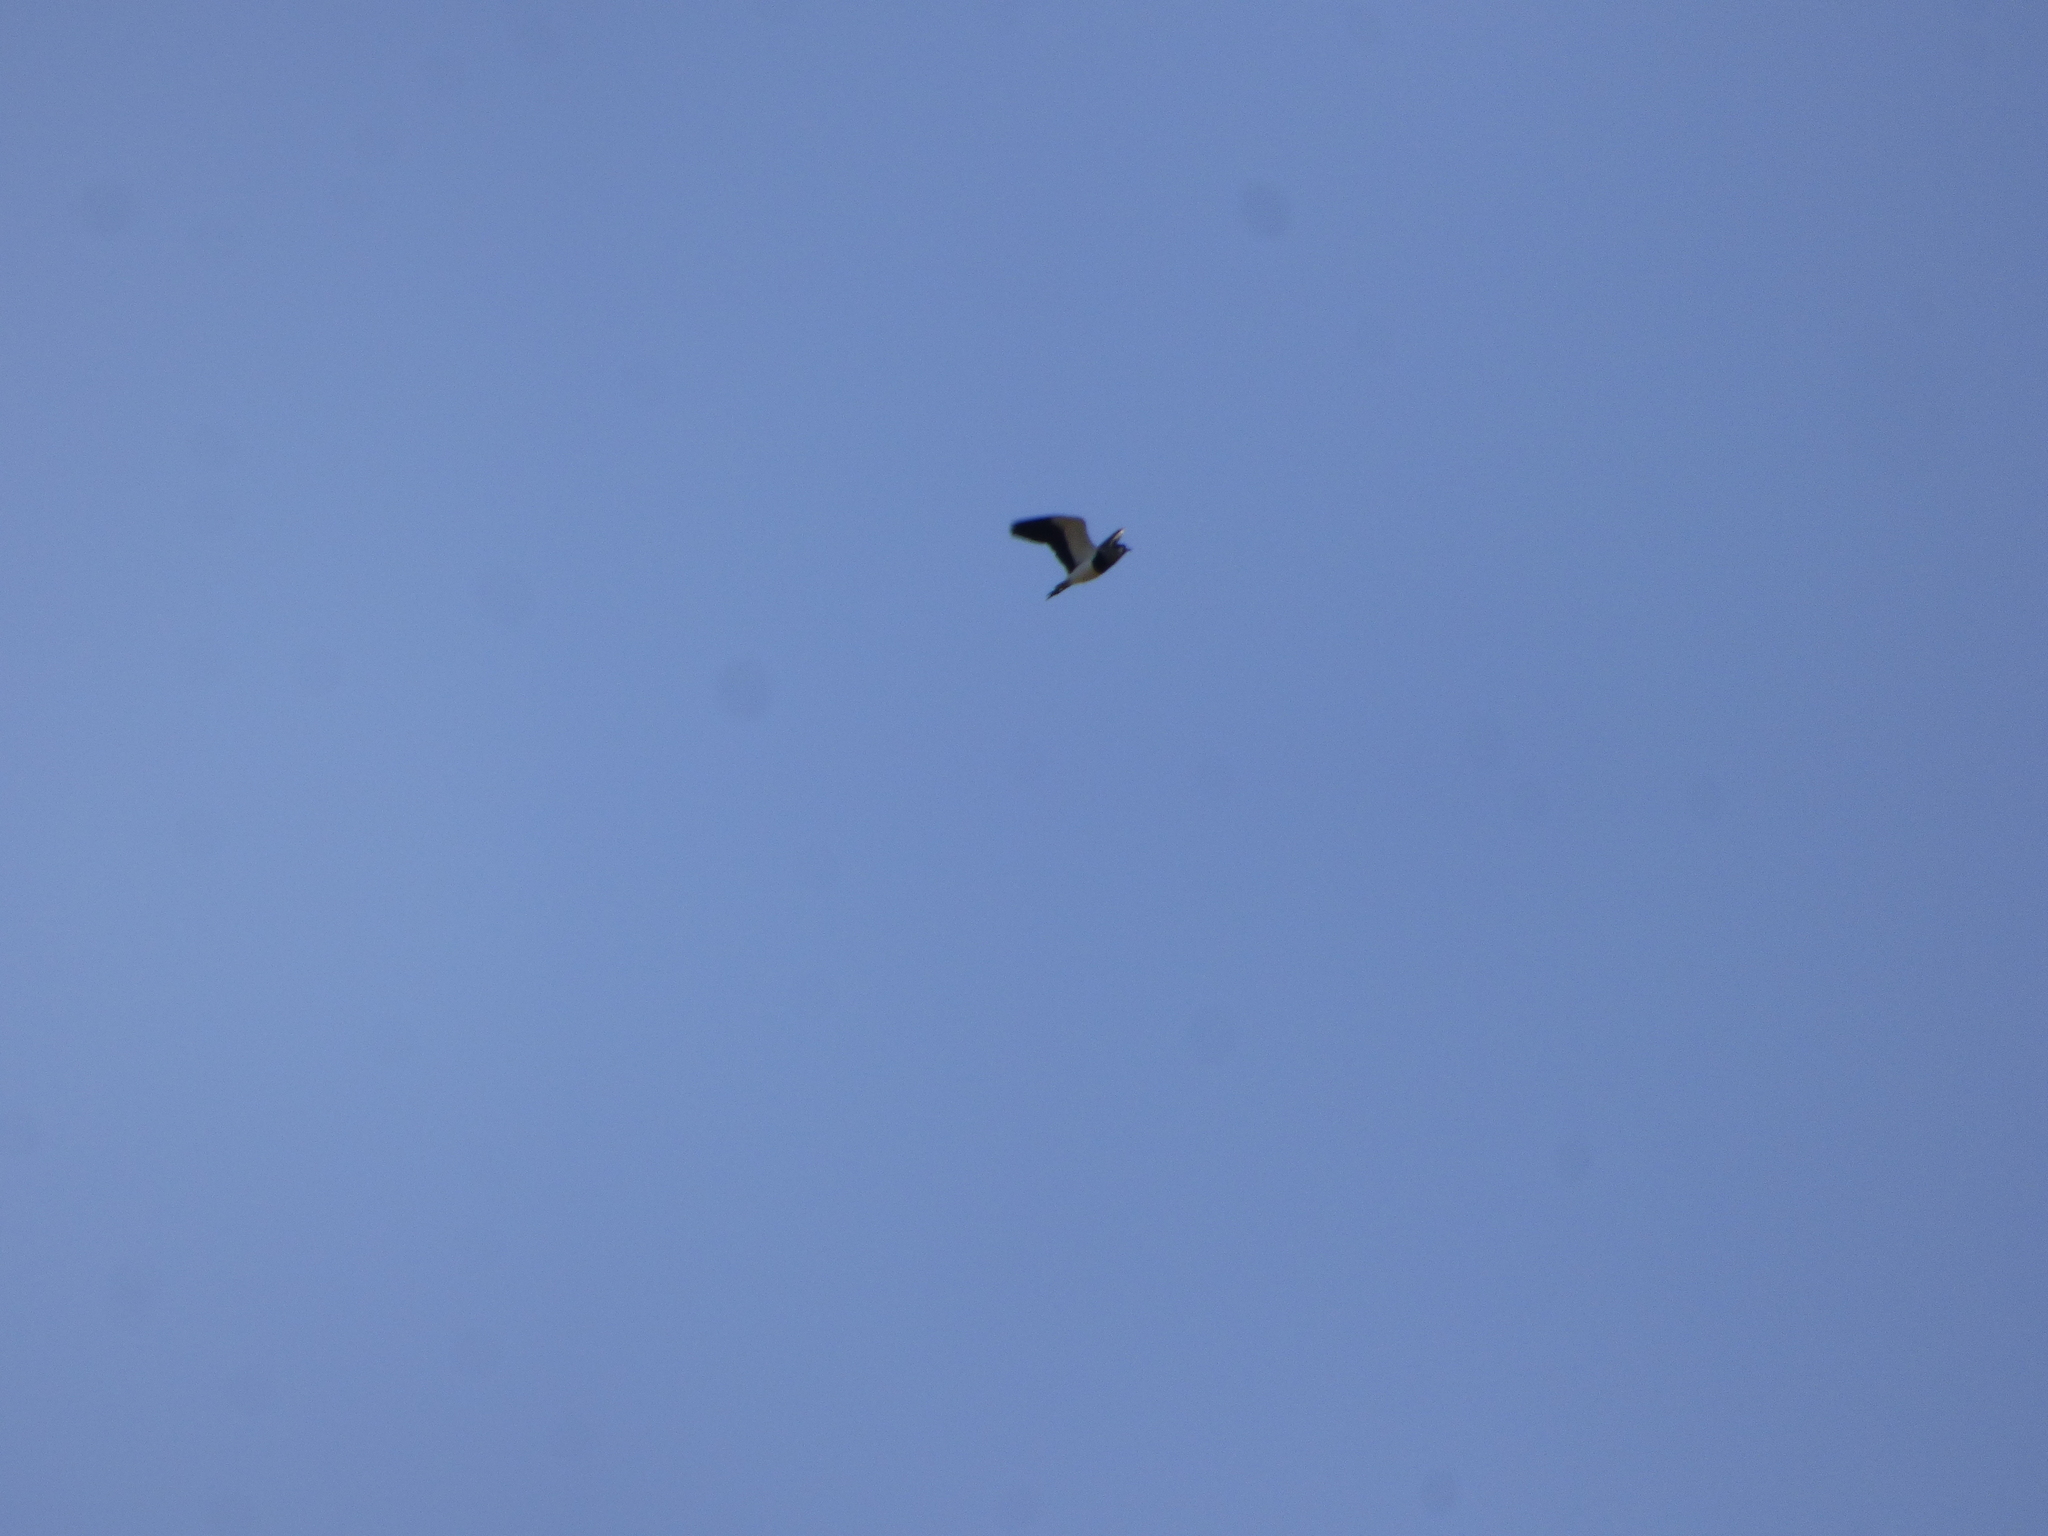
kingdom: Animalia
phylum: Chordata
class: Aves
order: Charadriiformes
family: Charadriidae
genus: Vanellus
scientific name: Vanellus chilensis
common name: Southern lapwing
